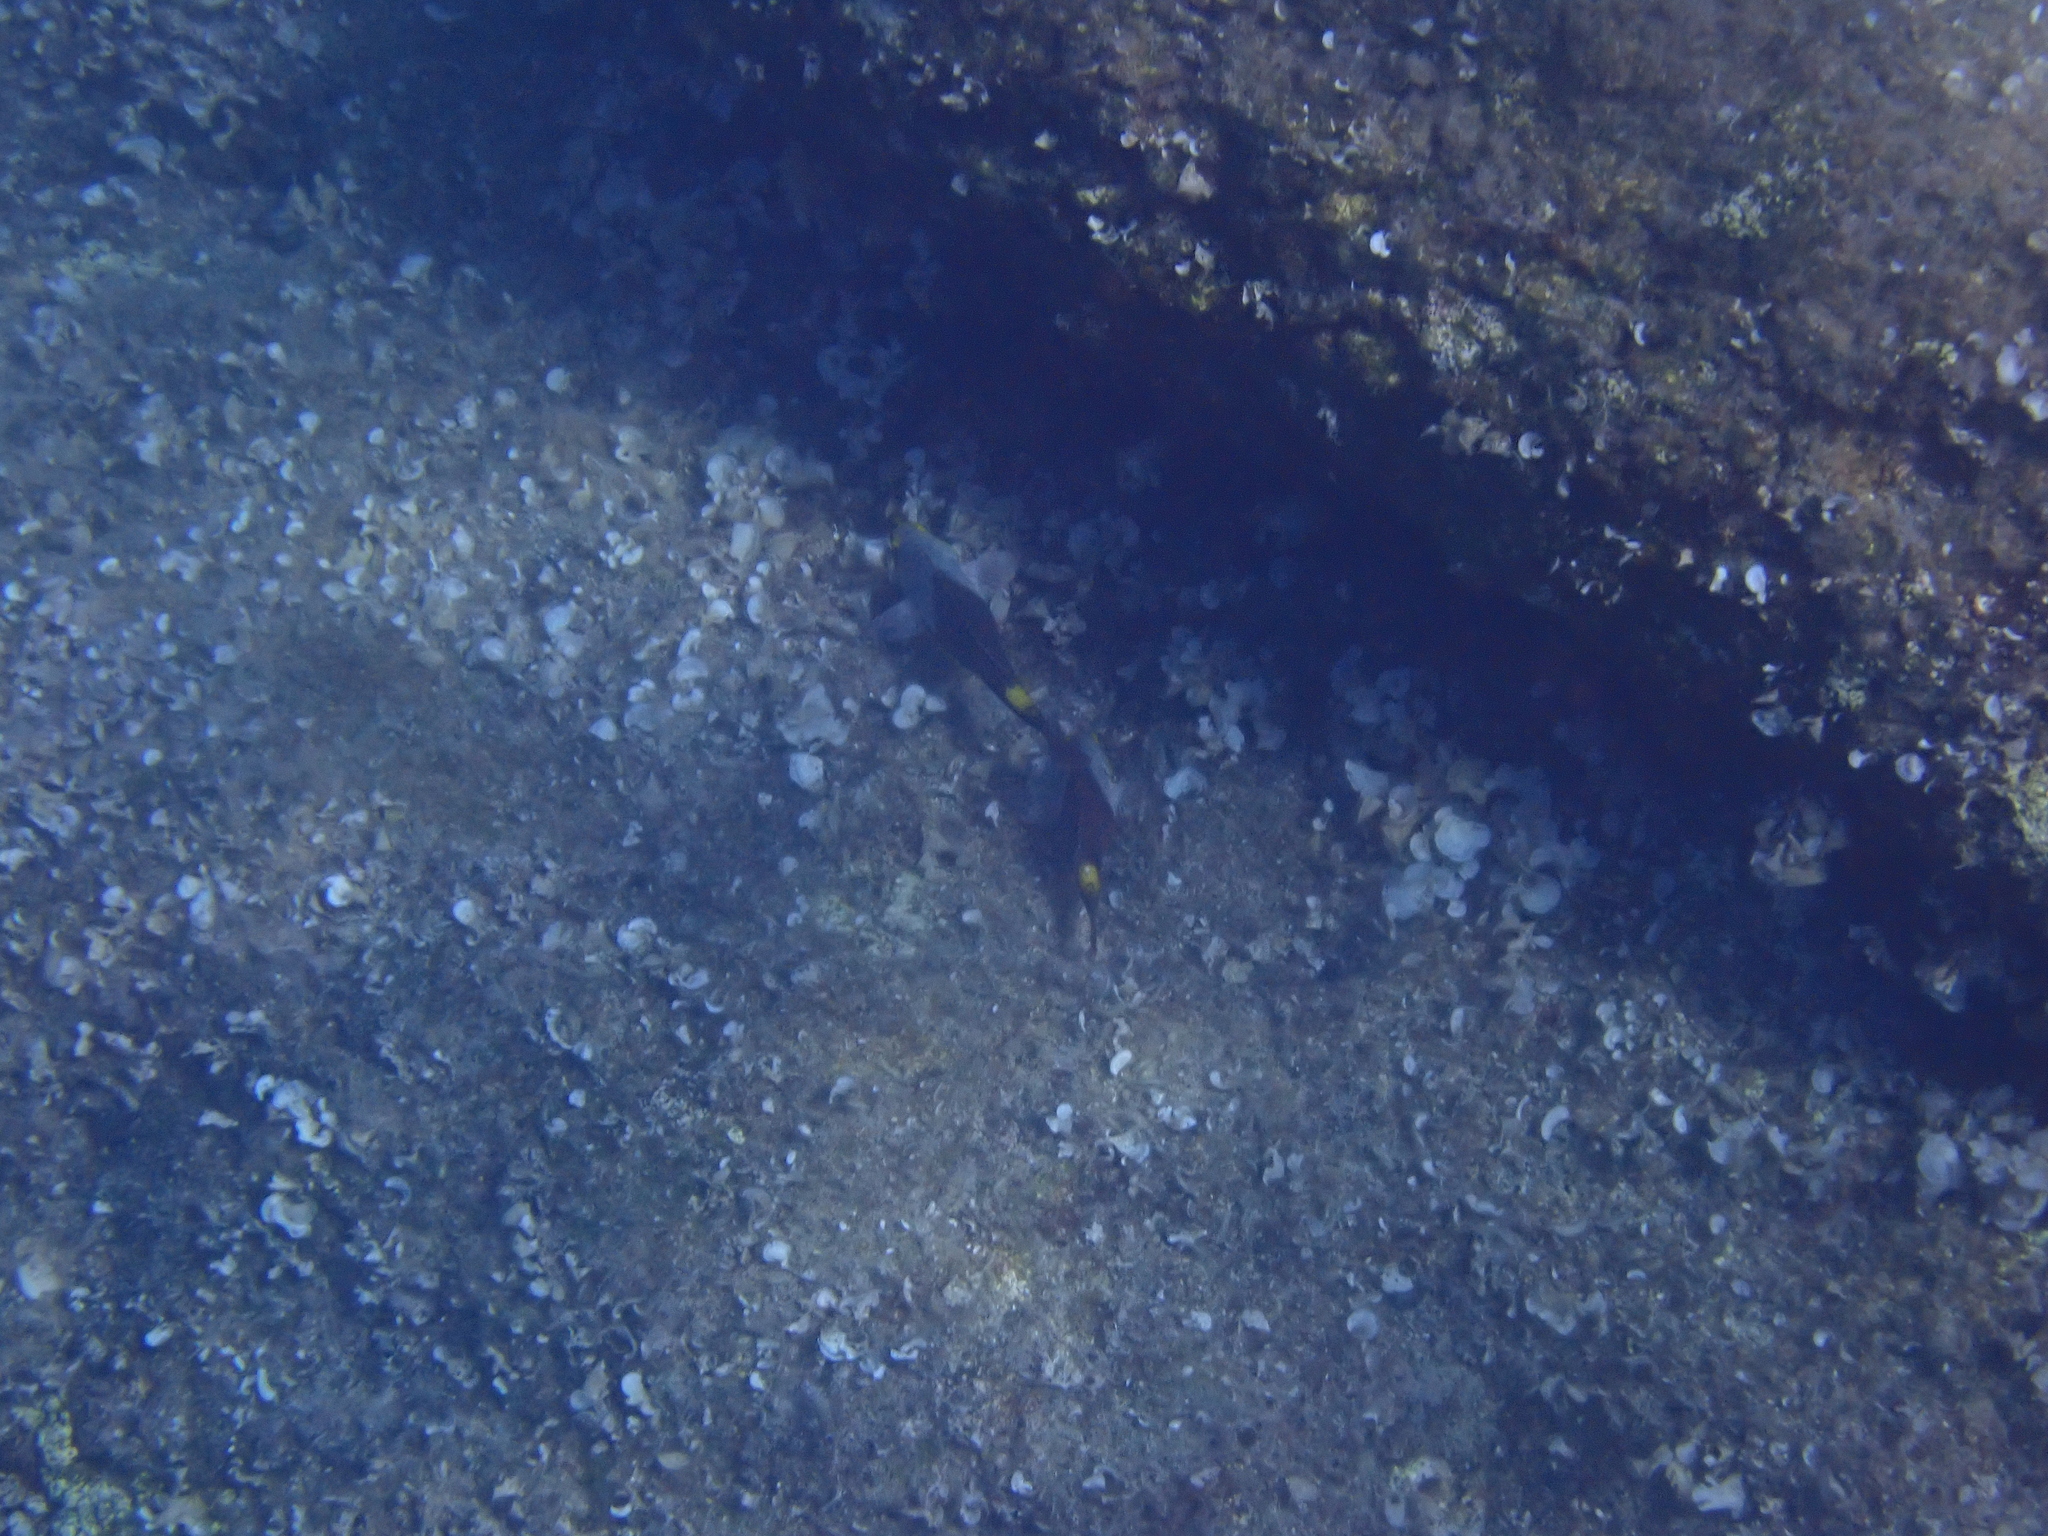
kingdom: Animalia
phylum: Chordata
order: Perciformes
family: Scaridae
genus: Sparisoma
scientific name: Sparisoma cretense
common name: Parrotfish
